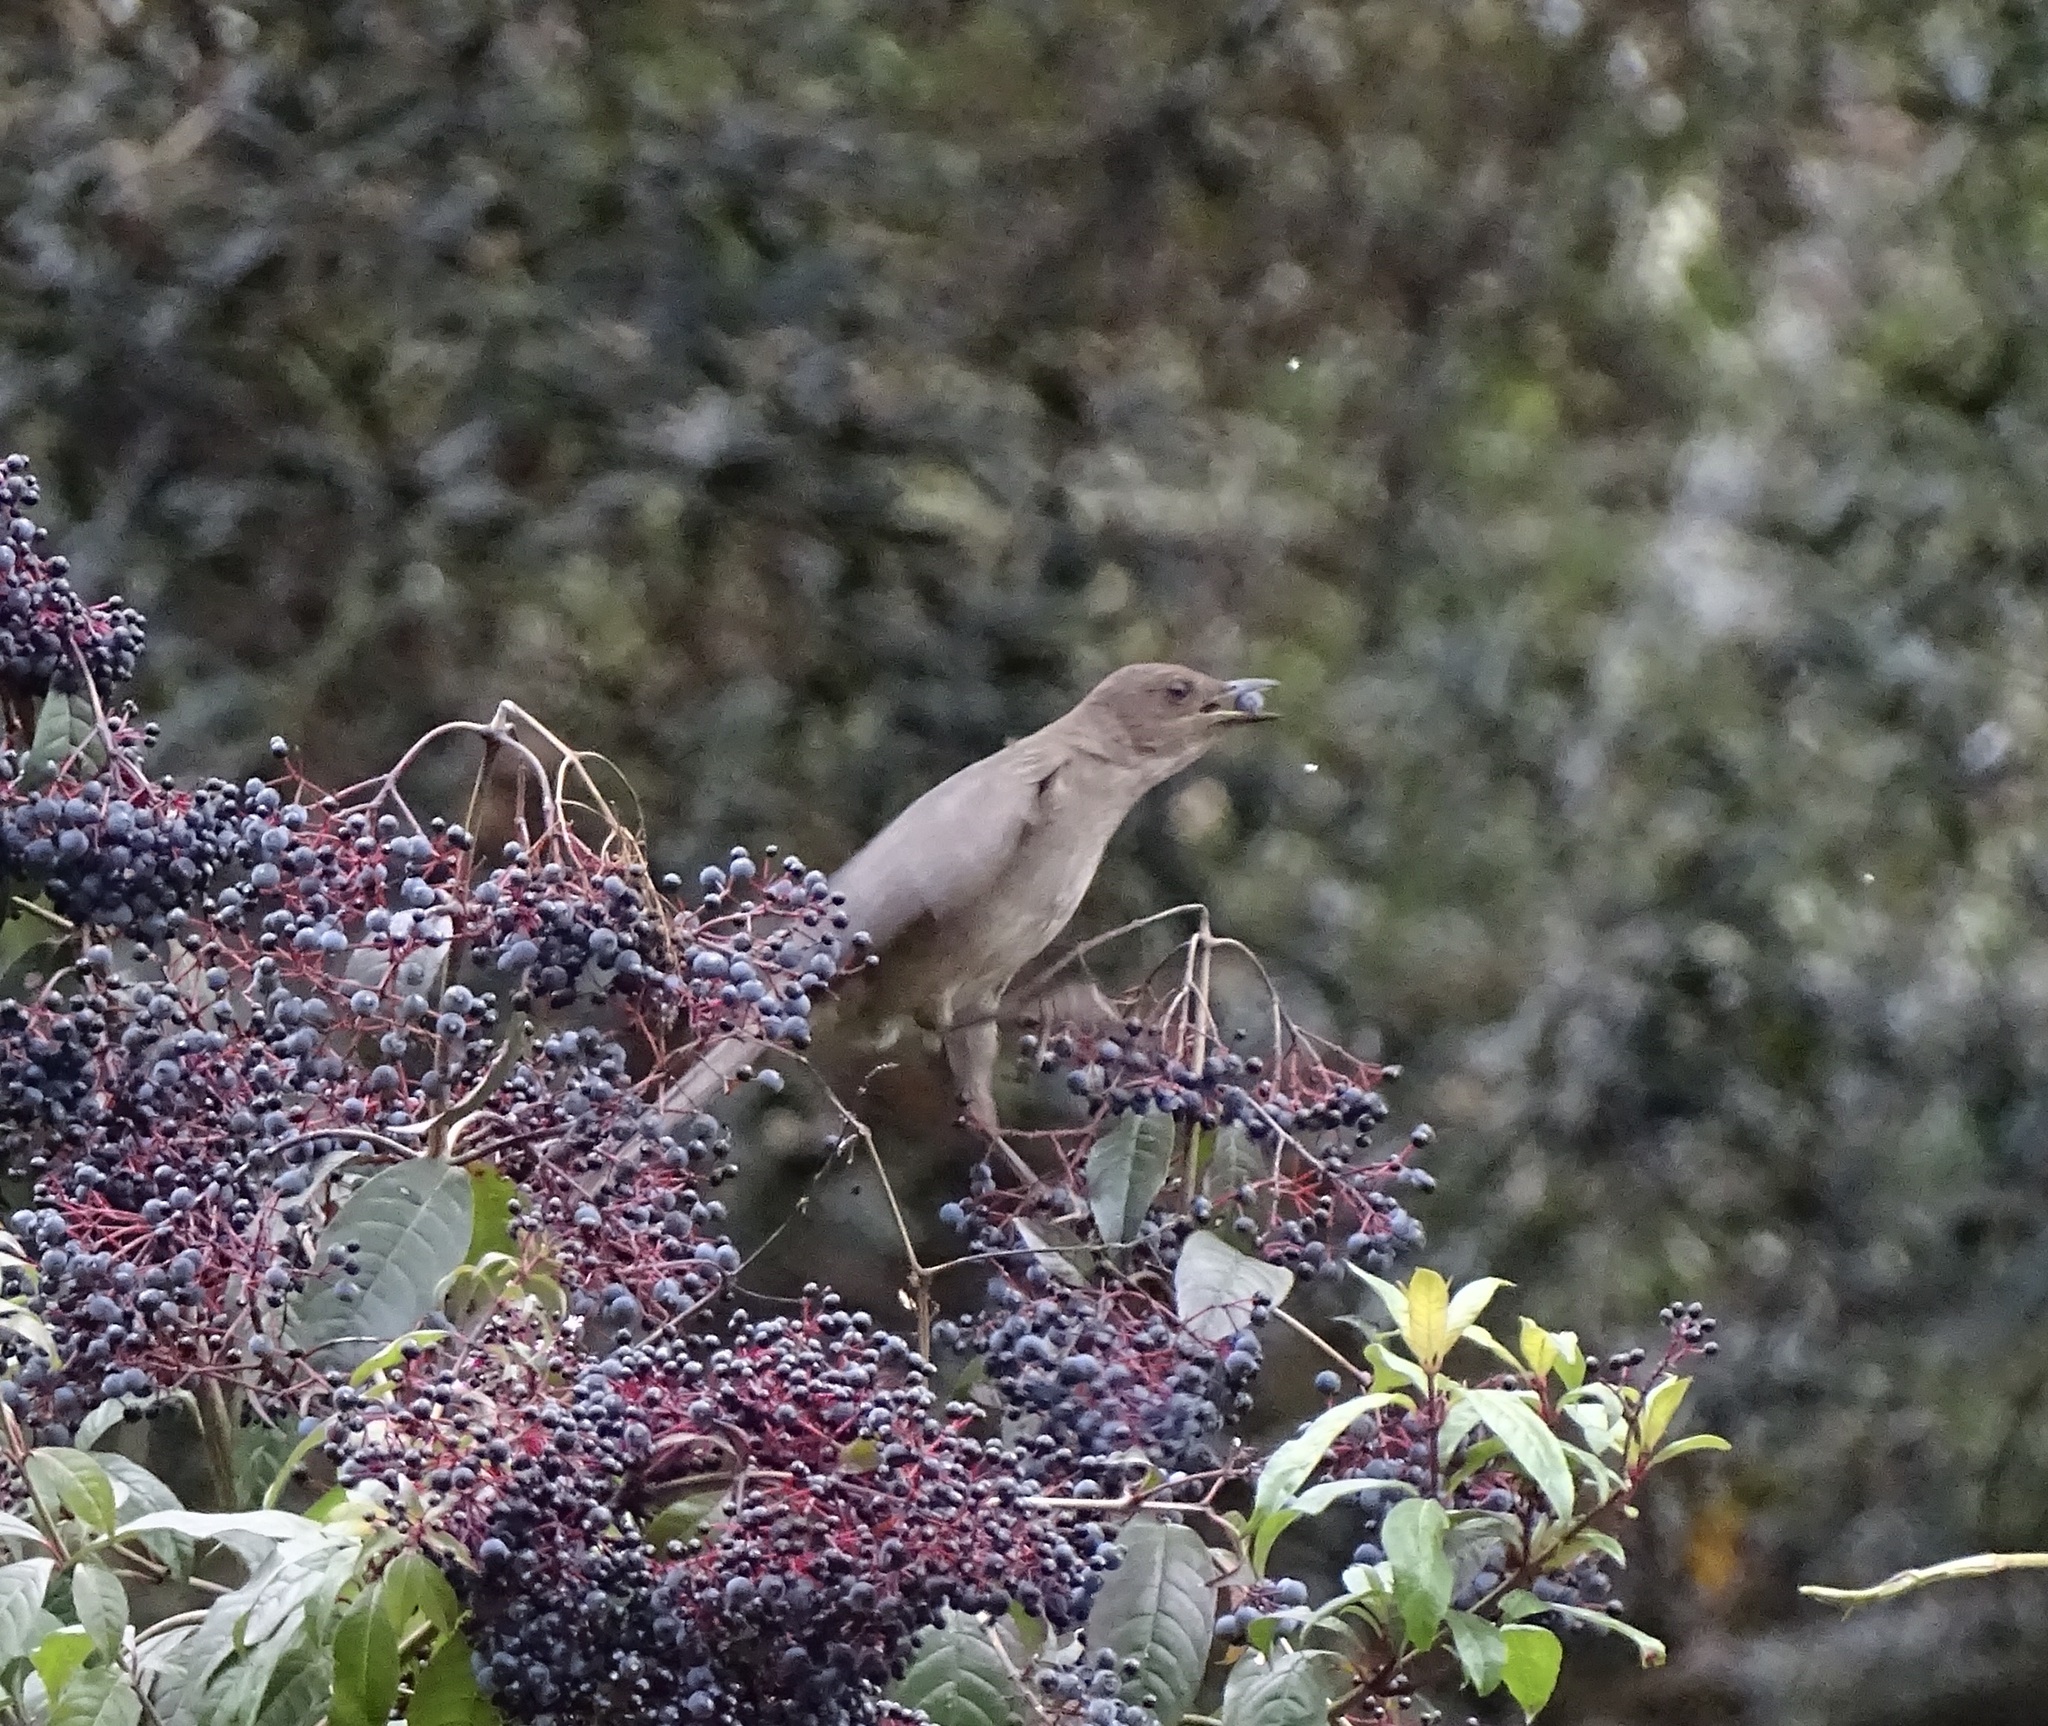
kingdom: Animalia
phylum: Chordata
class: Aves
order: Passeriformes
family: Turdidae
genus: Turdus
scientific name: Turdus plebejus
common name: Mountain thrush
